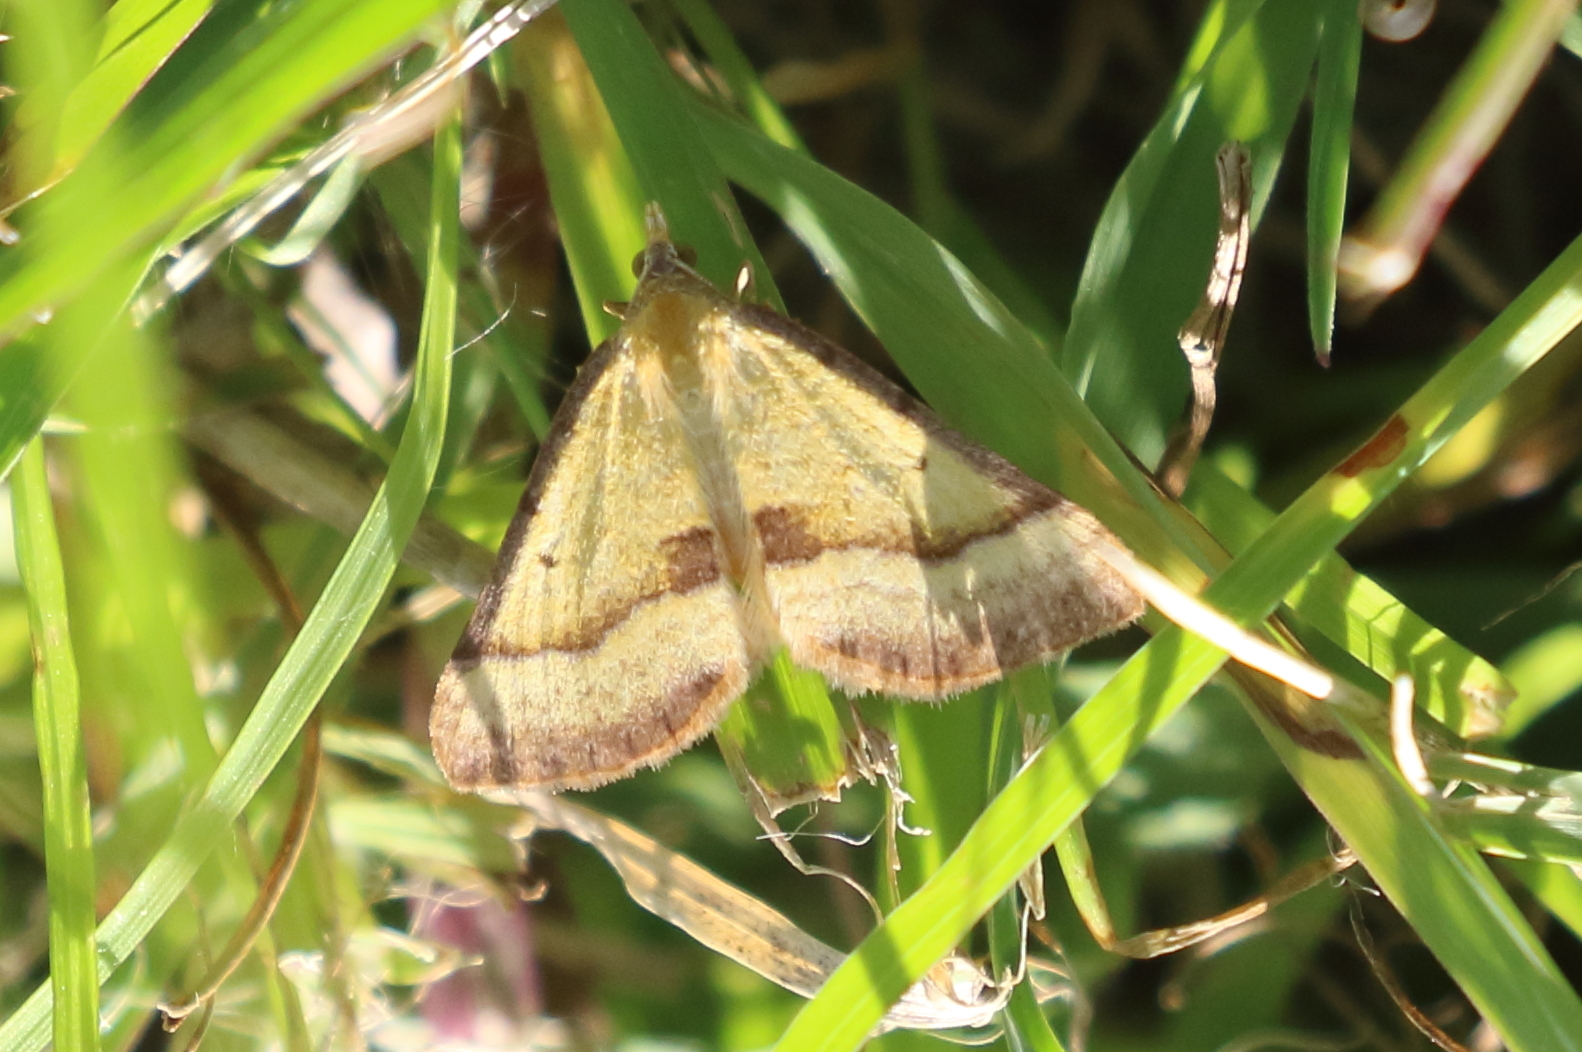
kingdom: Animalia
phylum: Arthropoda
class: Insecta
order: Lepidoptera
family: Geometridae
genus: Anachloris
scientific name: Anachloris subochraria
